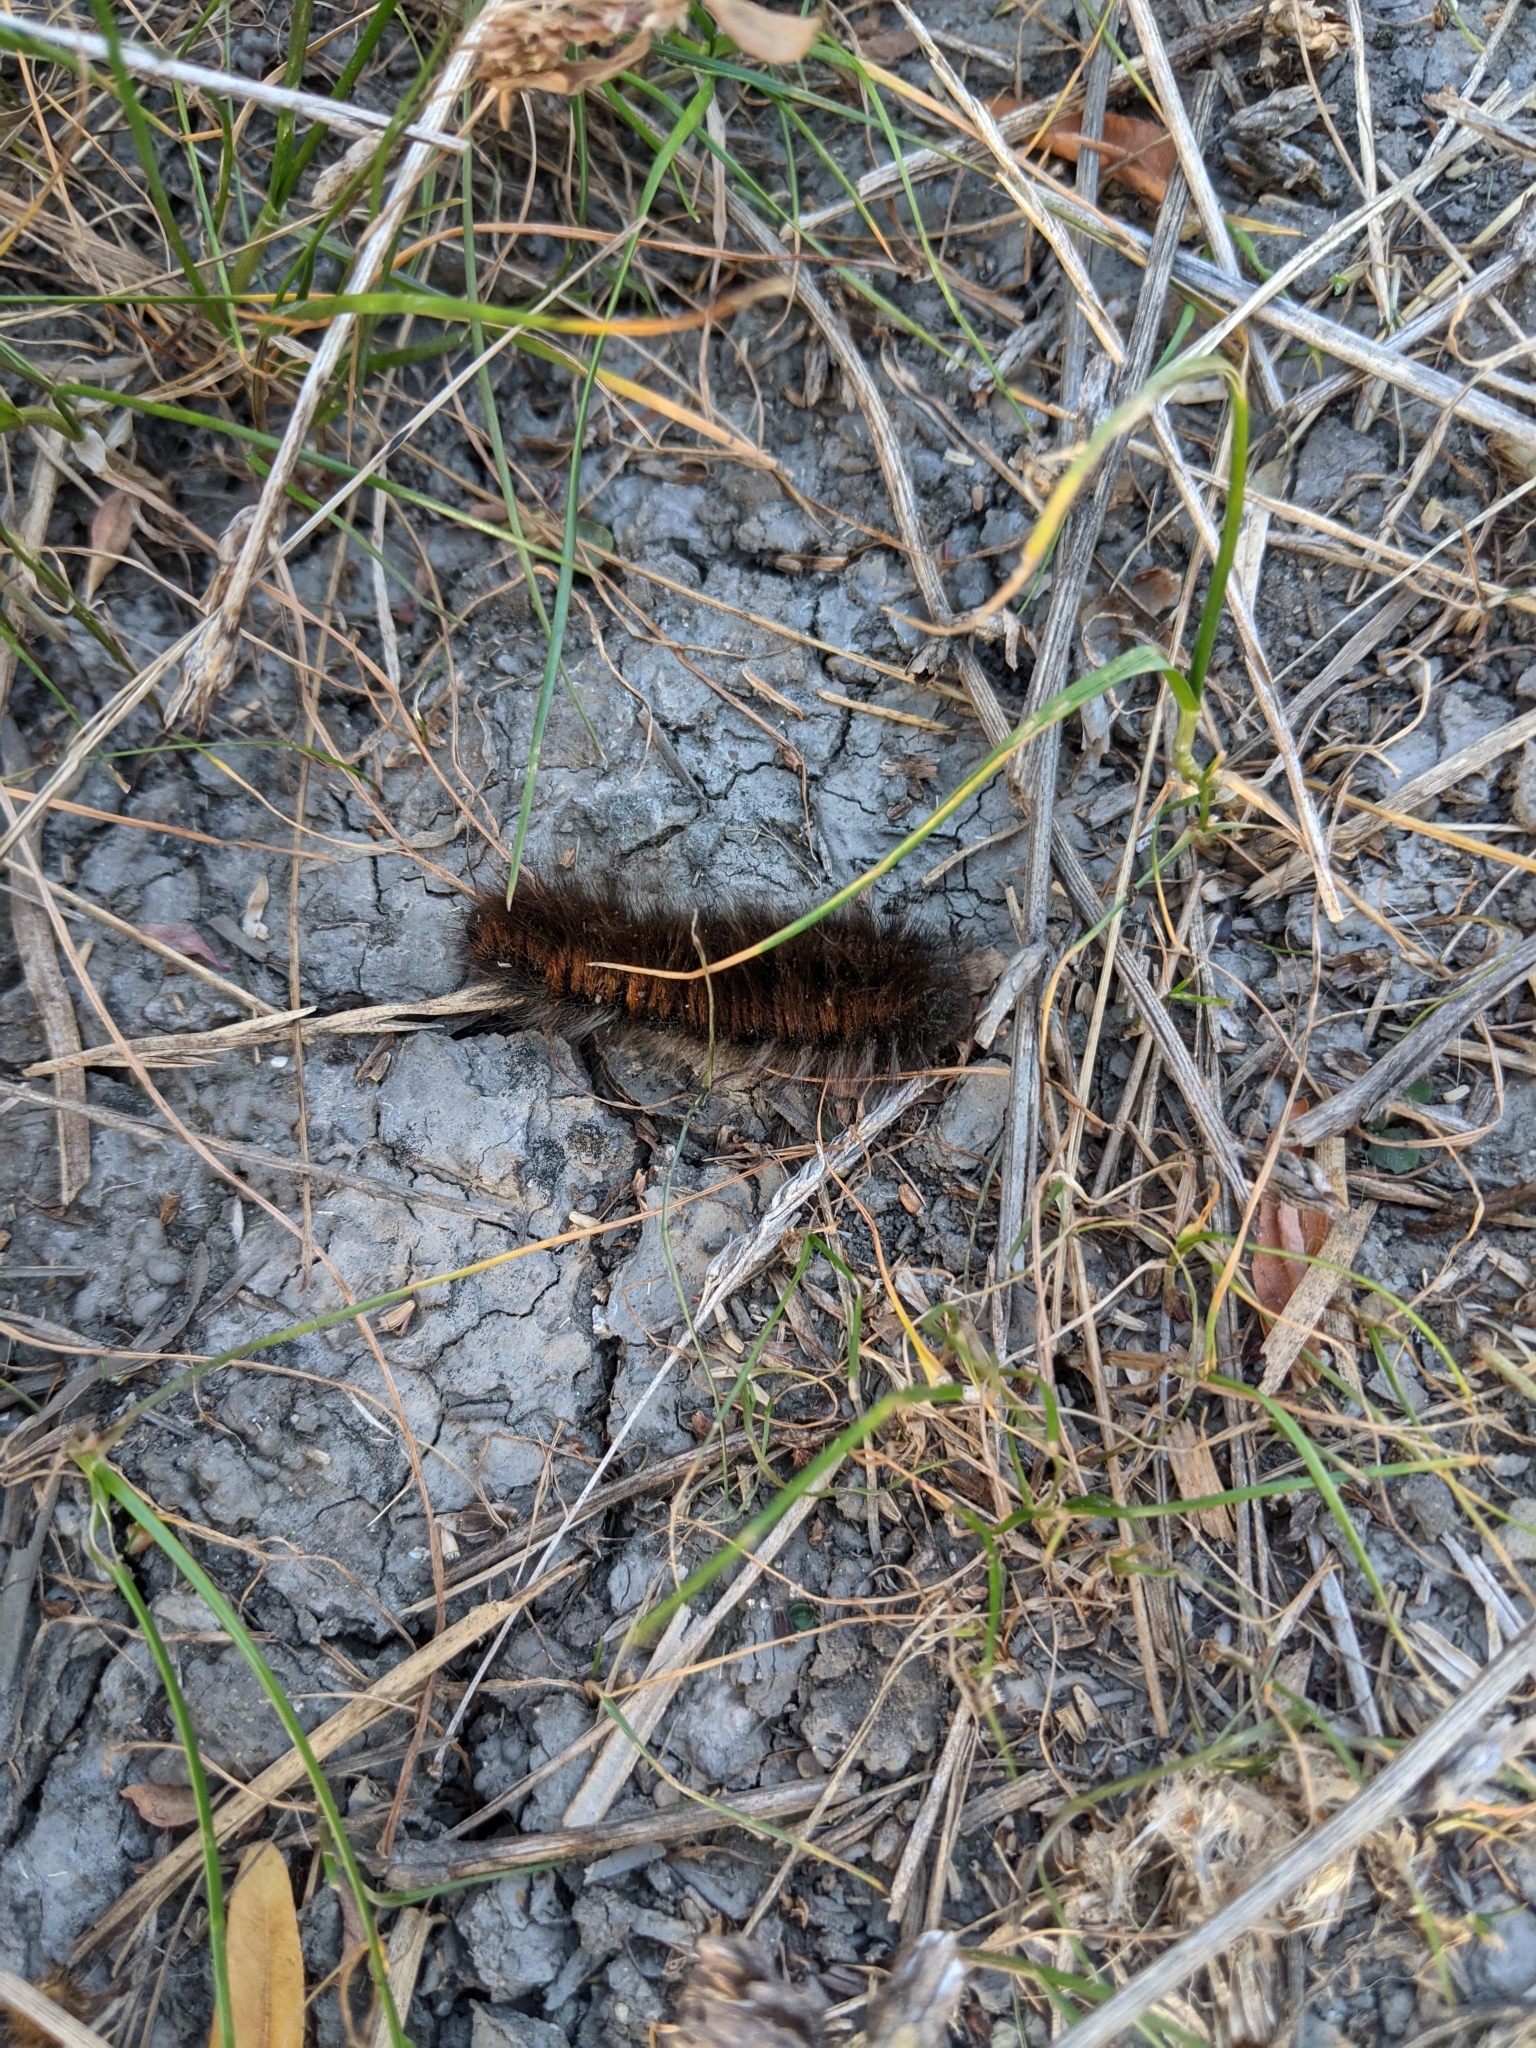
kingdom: Animalia
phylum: Arthropoda
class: Insecta
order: Lepidoptera
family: Lasiocampidae
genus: Macrothylacia
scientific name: Macrothylacia rubi
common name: Fox moth
